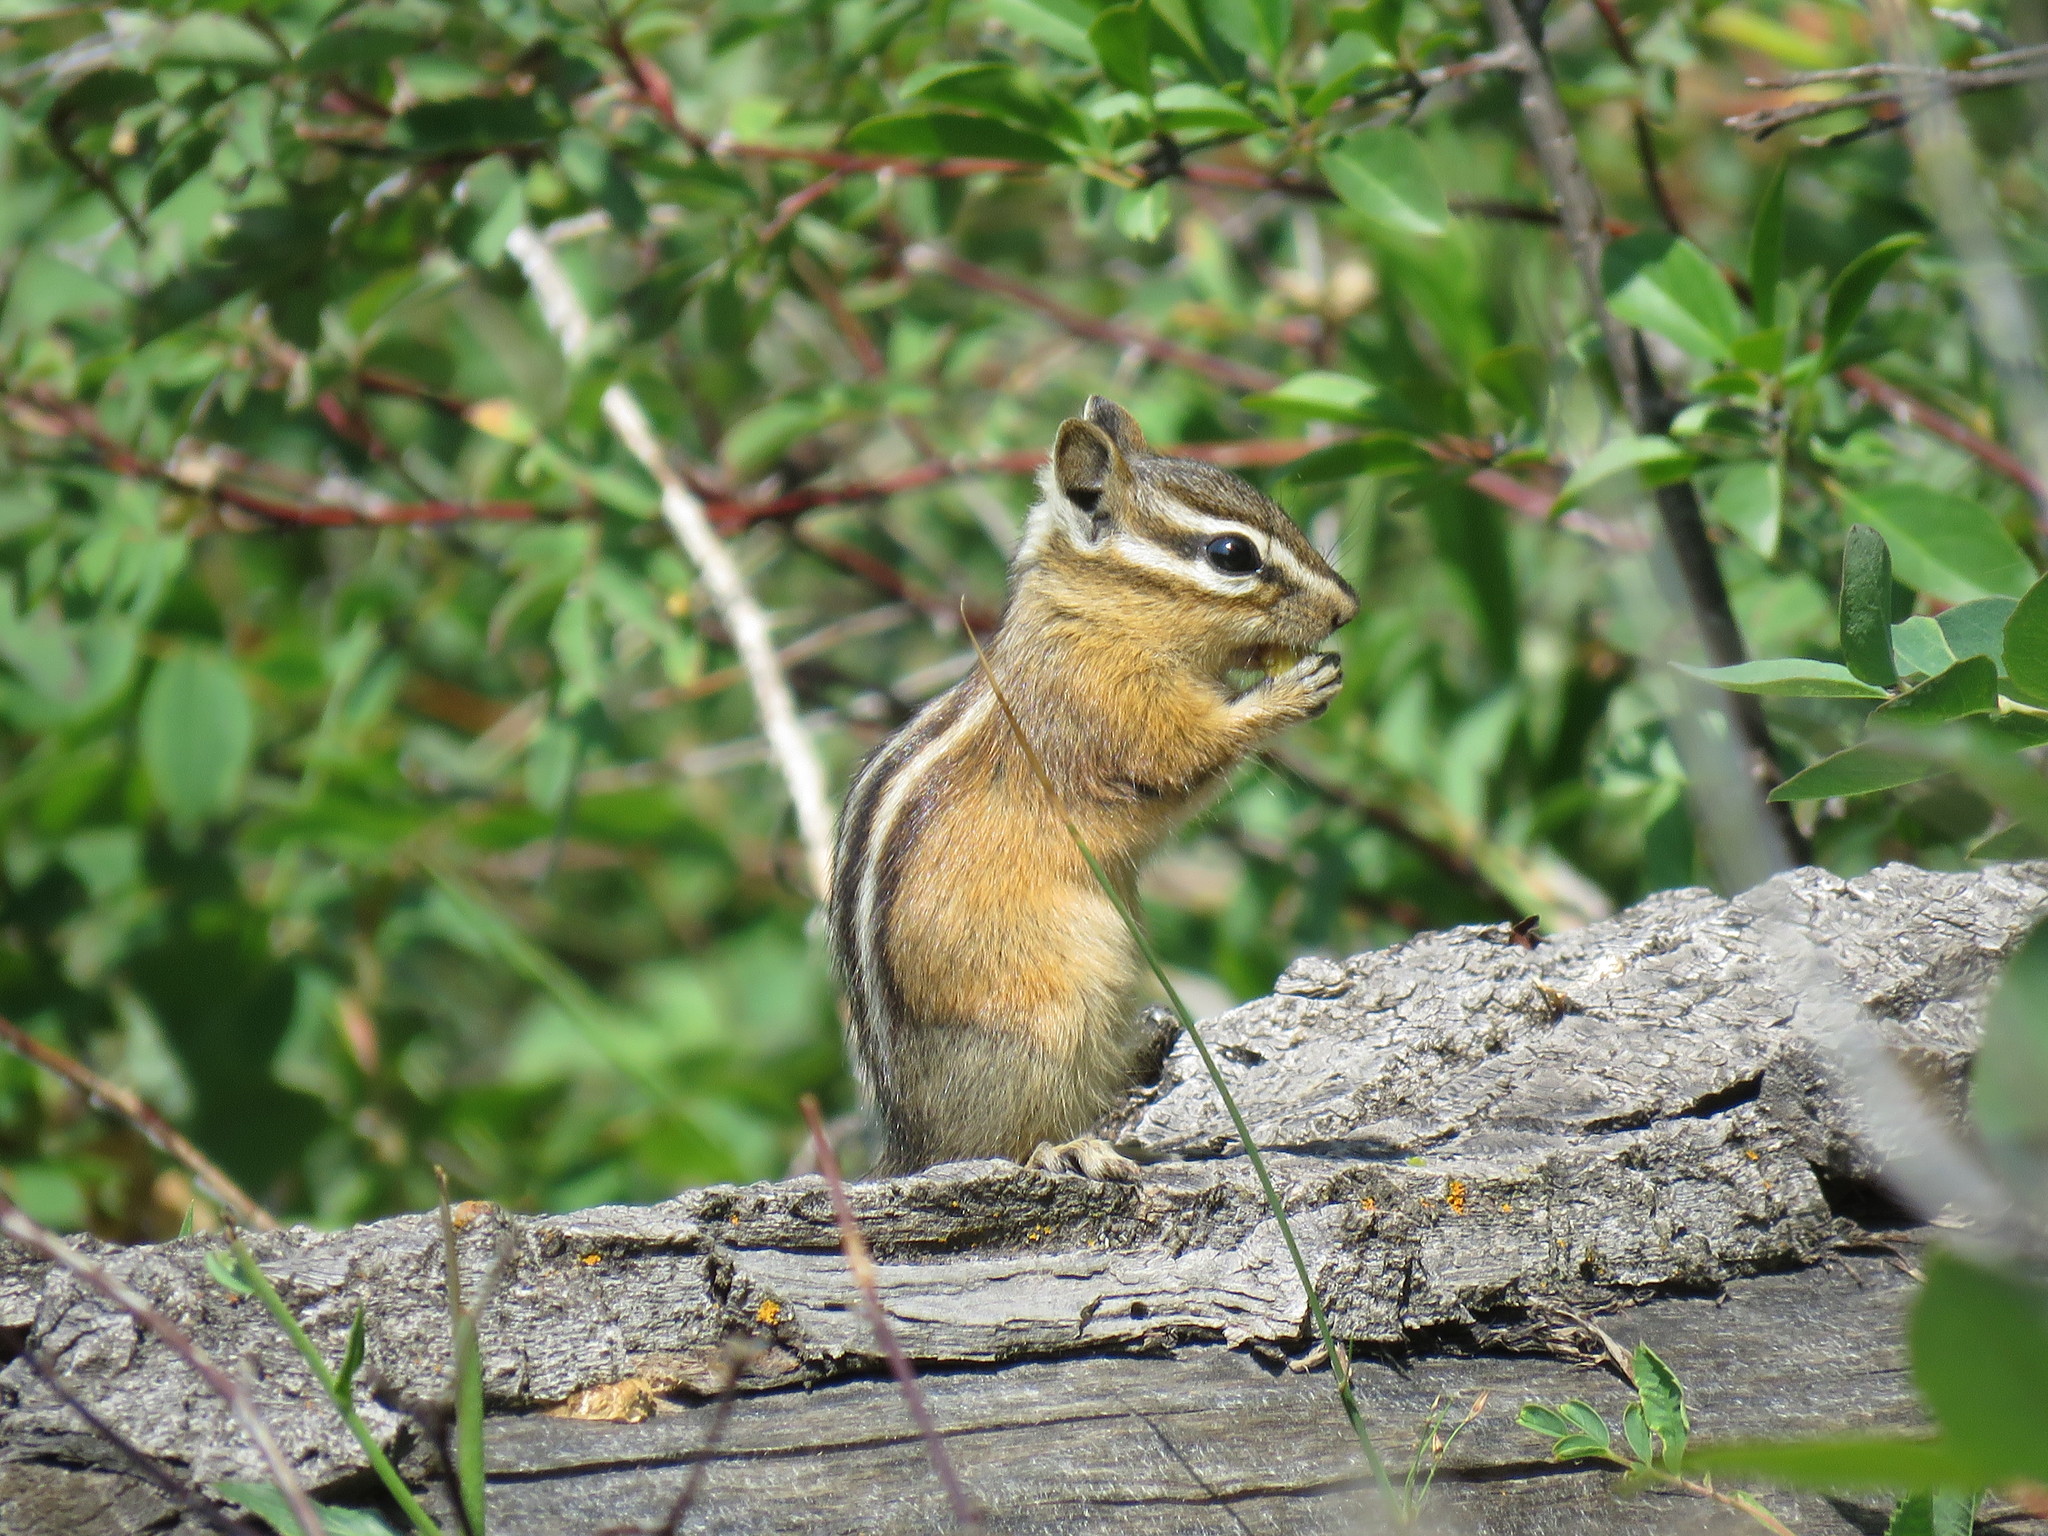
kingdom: Animalia
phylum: Chordata
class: Mammalia
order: Rodentia
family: Sciuridae
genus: Tamias
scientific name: Tamias minimus
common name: Least chipmunk
